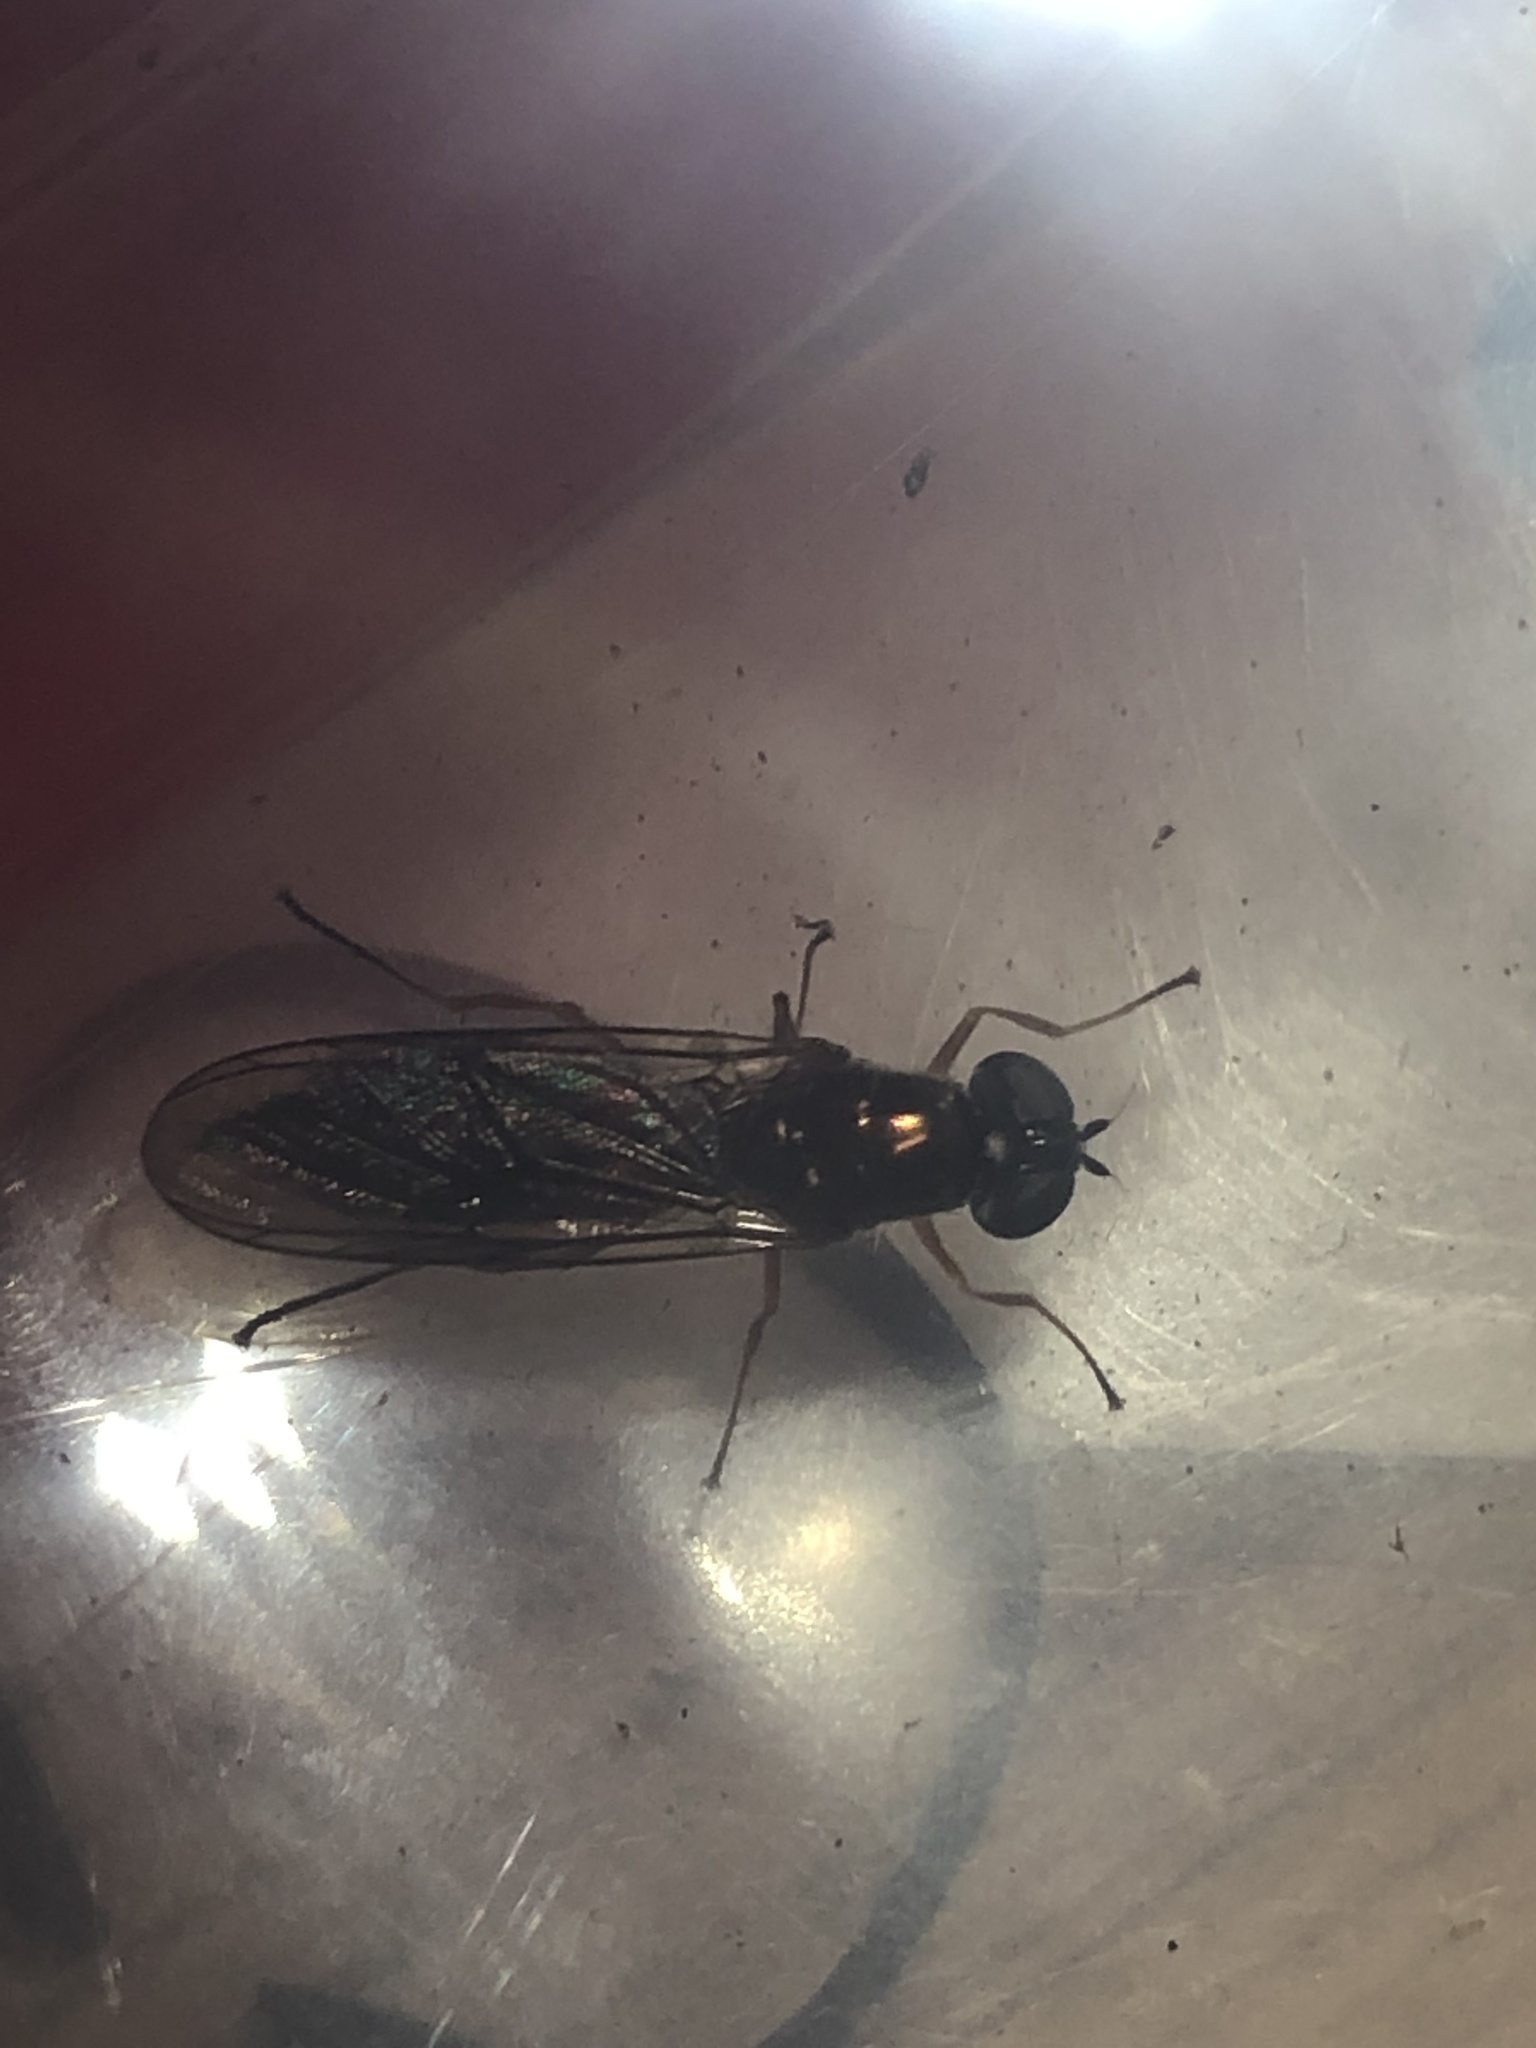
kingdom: Animalia
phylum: Arthropoda
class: Insecta
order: Diptera
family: Stratiomyidae
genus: Sargus
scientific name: Sargus bipunctatus
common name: Twin-spot centurion
